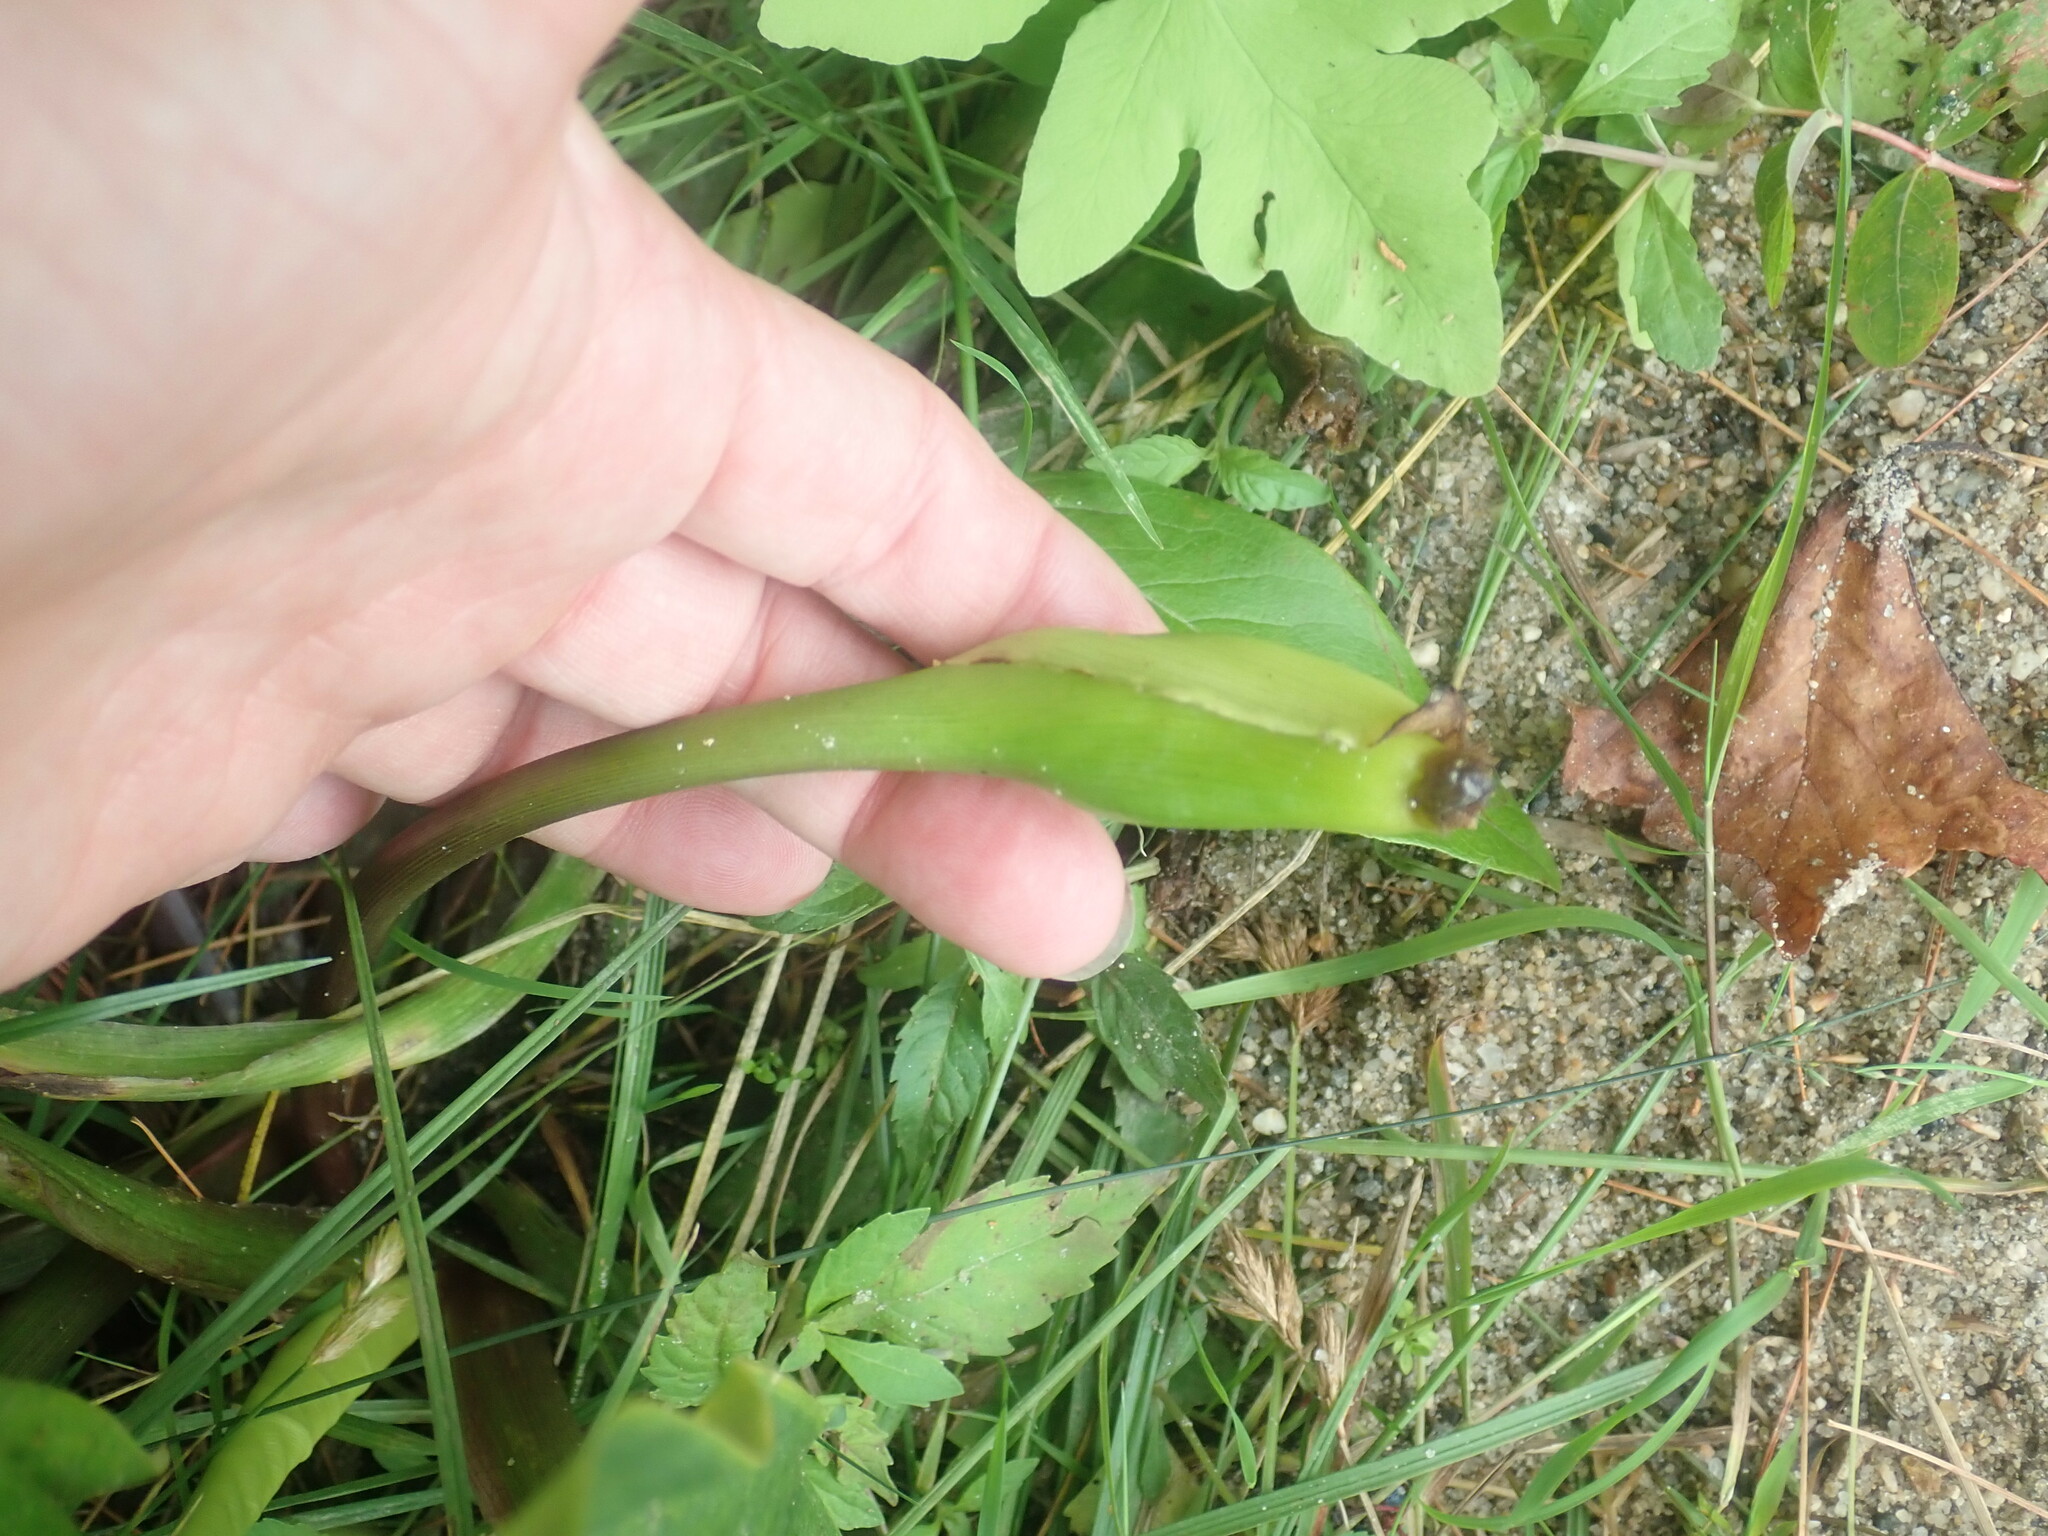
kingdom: Plantae
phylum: Tracheophyta
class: Liliopsida
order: Alismatales
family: Araceae
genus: Peltandra
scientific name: Peltandra virginica
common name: Arrow arum
